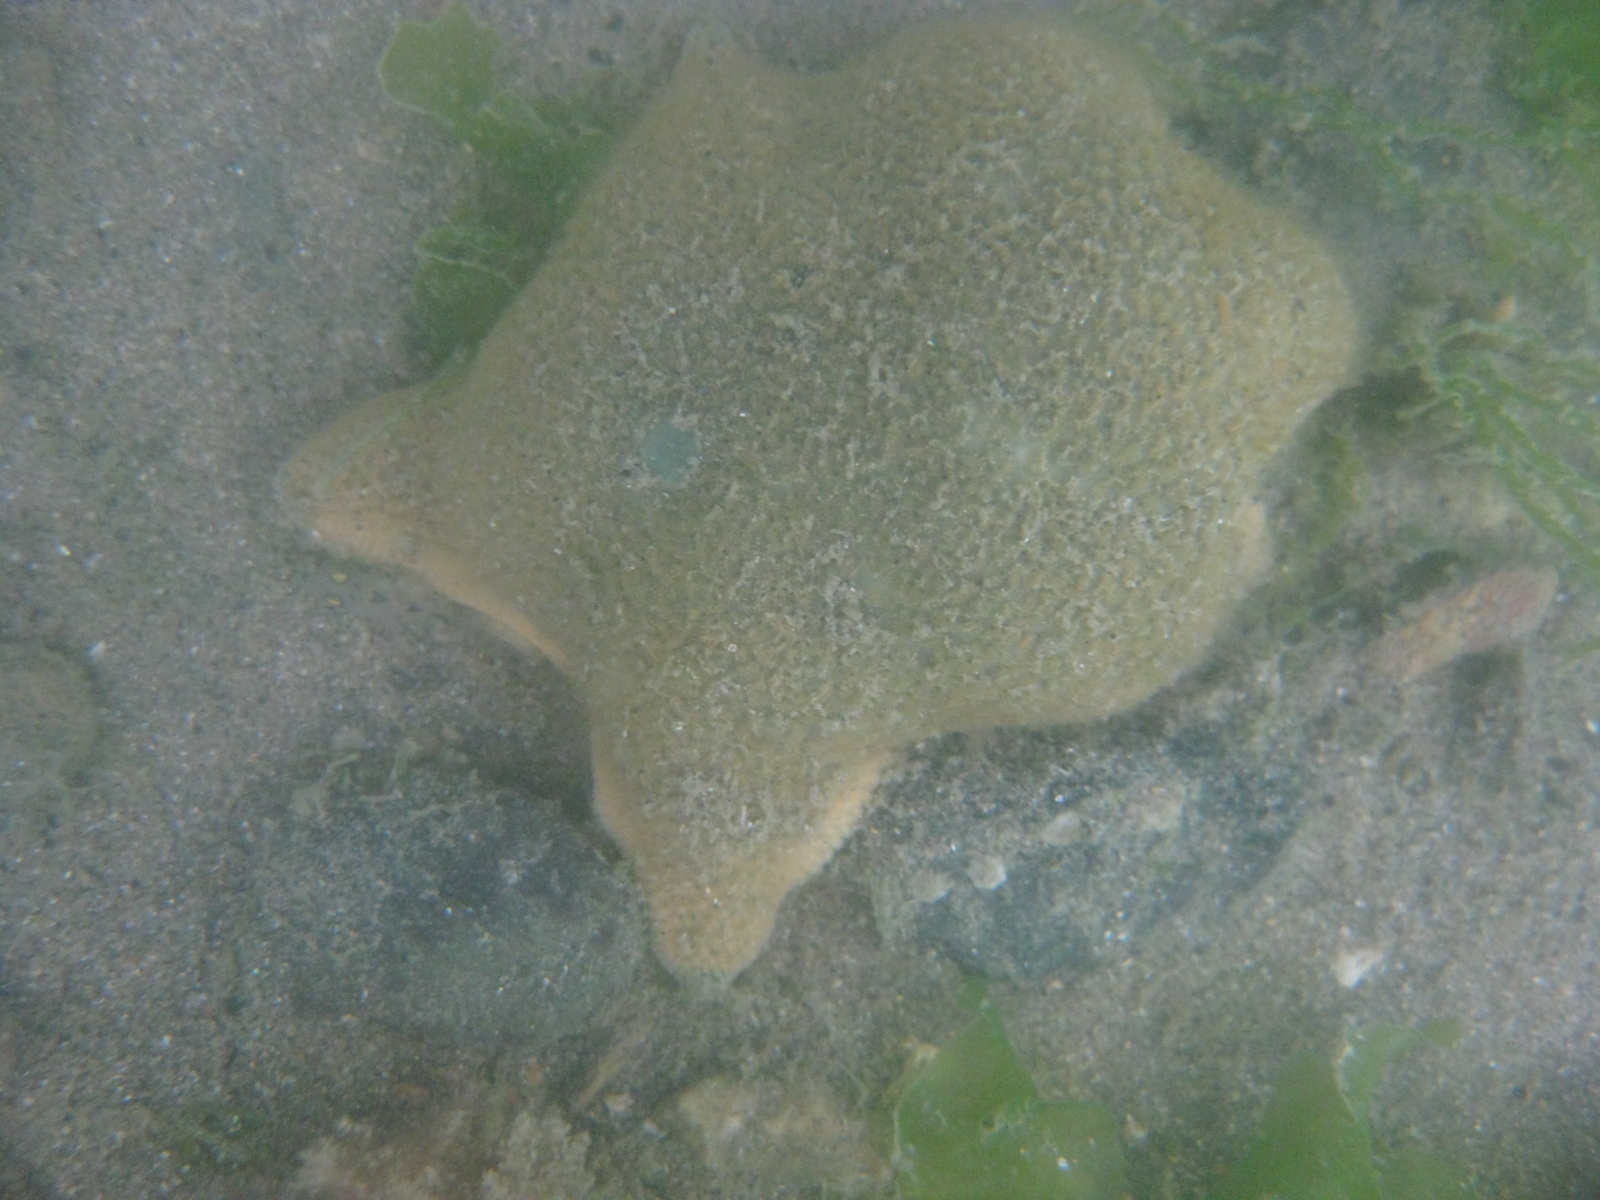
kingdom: Animalia
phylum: Echinodermata
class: Asteroidea
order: Valvatida
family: Asterinidae
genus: Patiriella
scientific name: Patiriella regularis
